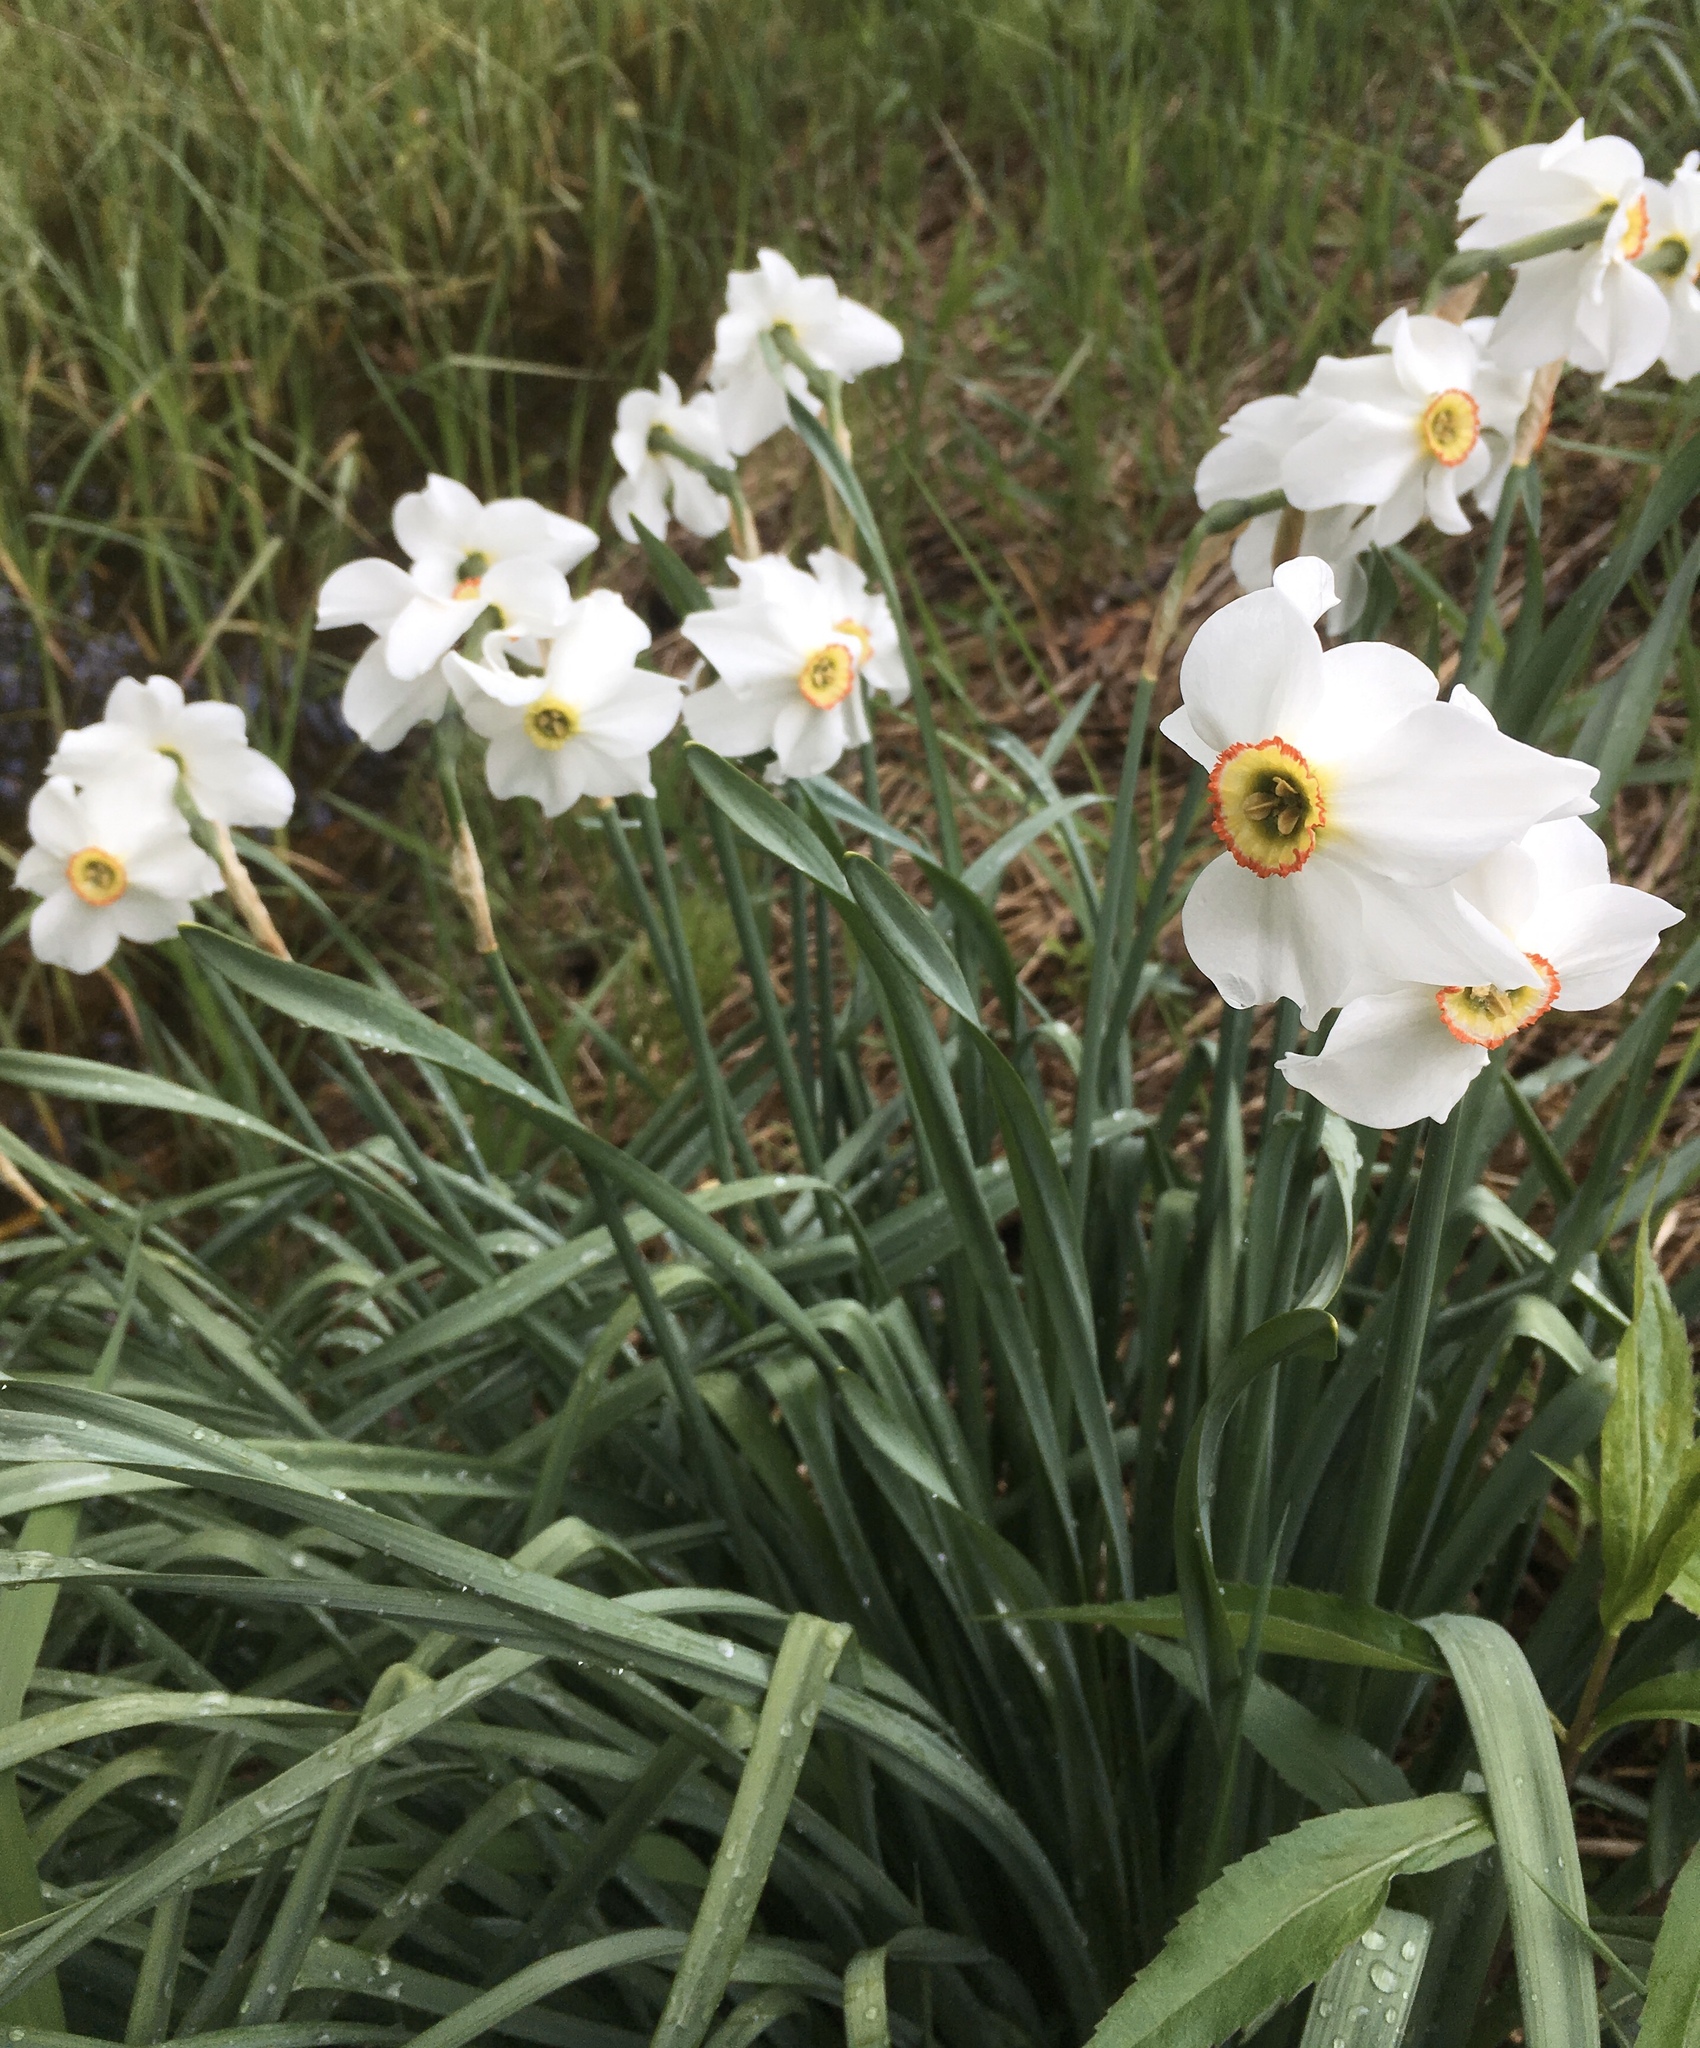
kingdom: Plantae
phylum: Tracheophyta
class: Liliopsida
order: Asparagales
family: Amaryllidaceae
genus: Narcissus
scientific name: Narcissus poeticus
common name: Pheasant's-eye daffodil
